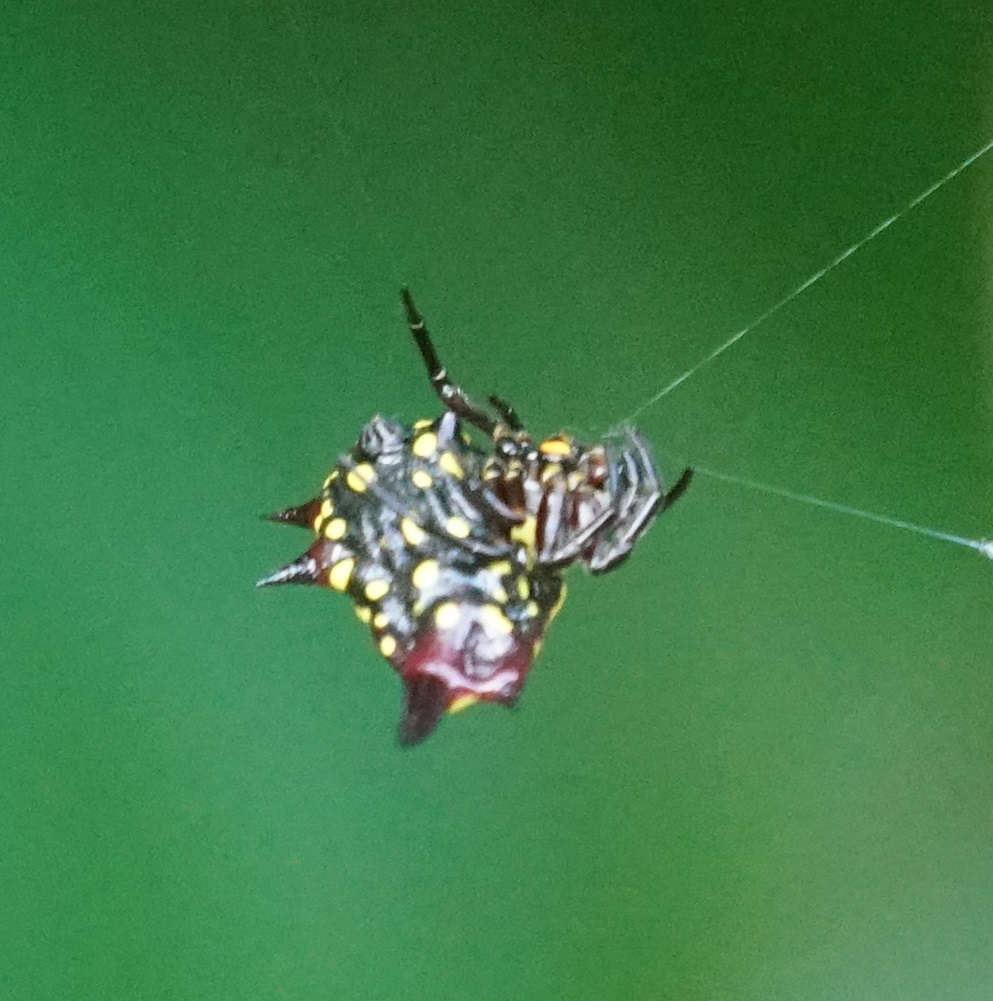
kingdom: Animalia
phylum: Arthropoda
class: Arachnida
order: Araneae
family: Araneidae
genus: Gasteracantha
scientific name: Gasteracantha fornicata
